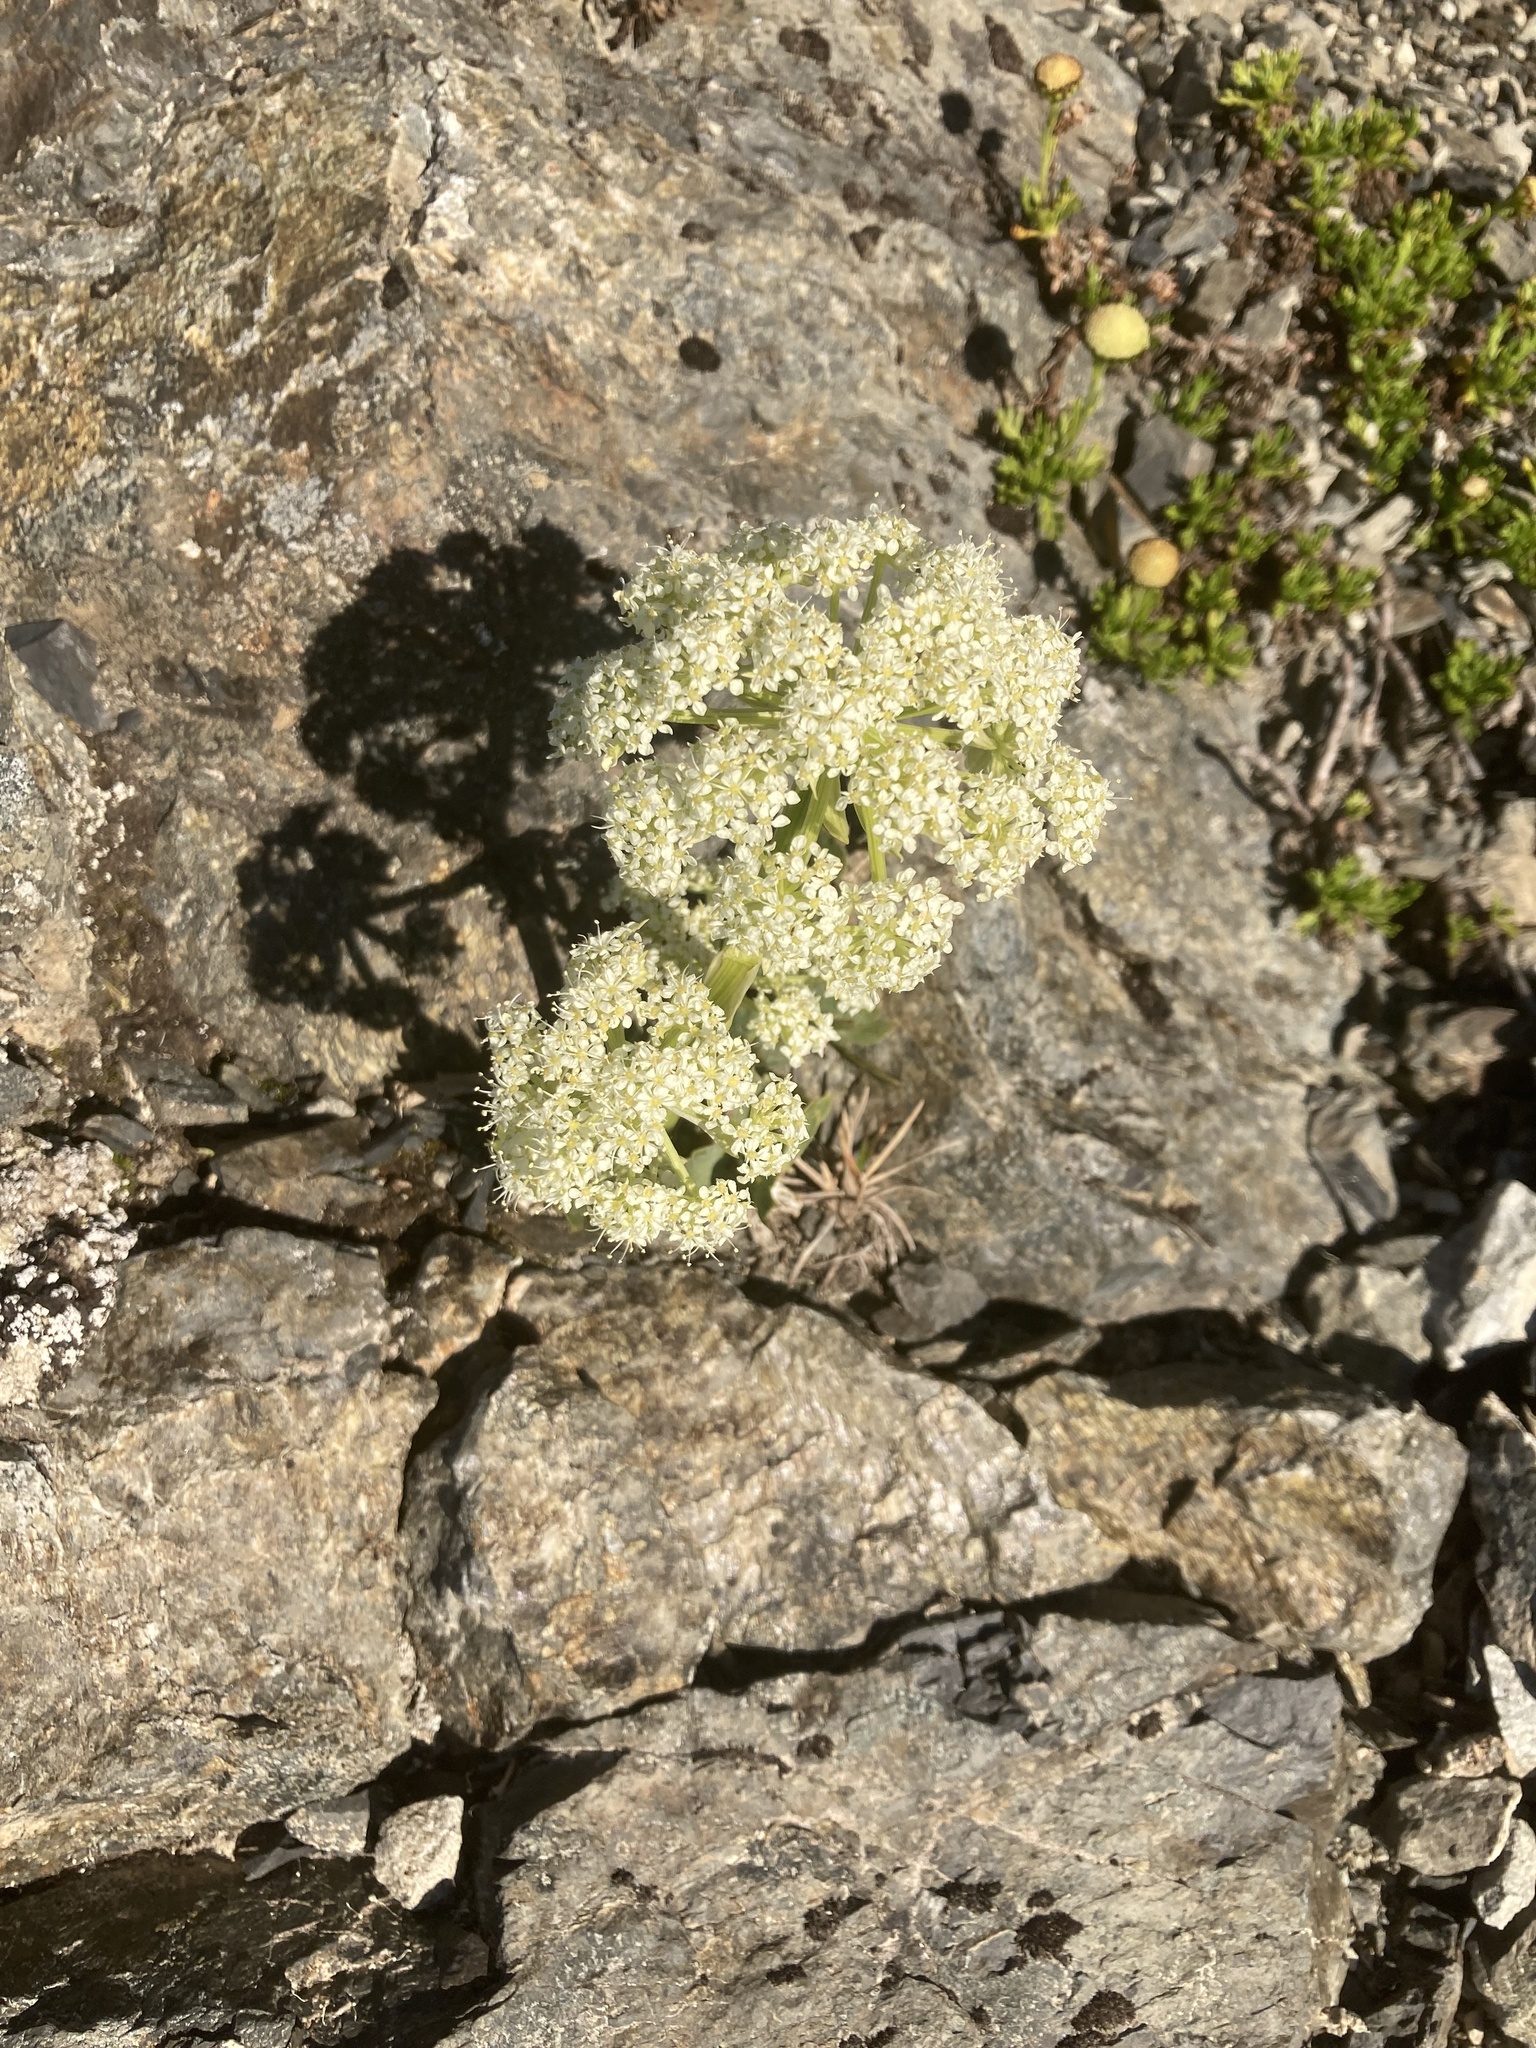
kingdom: Plantae
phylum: Tracheophyta
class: Magnoliopsida
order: Apiales
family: Apiaceae
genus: Anisotome
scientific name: Anisotome pilifera
